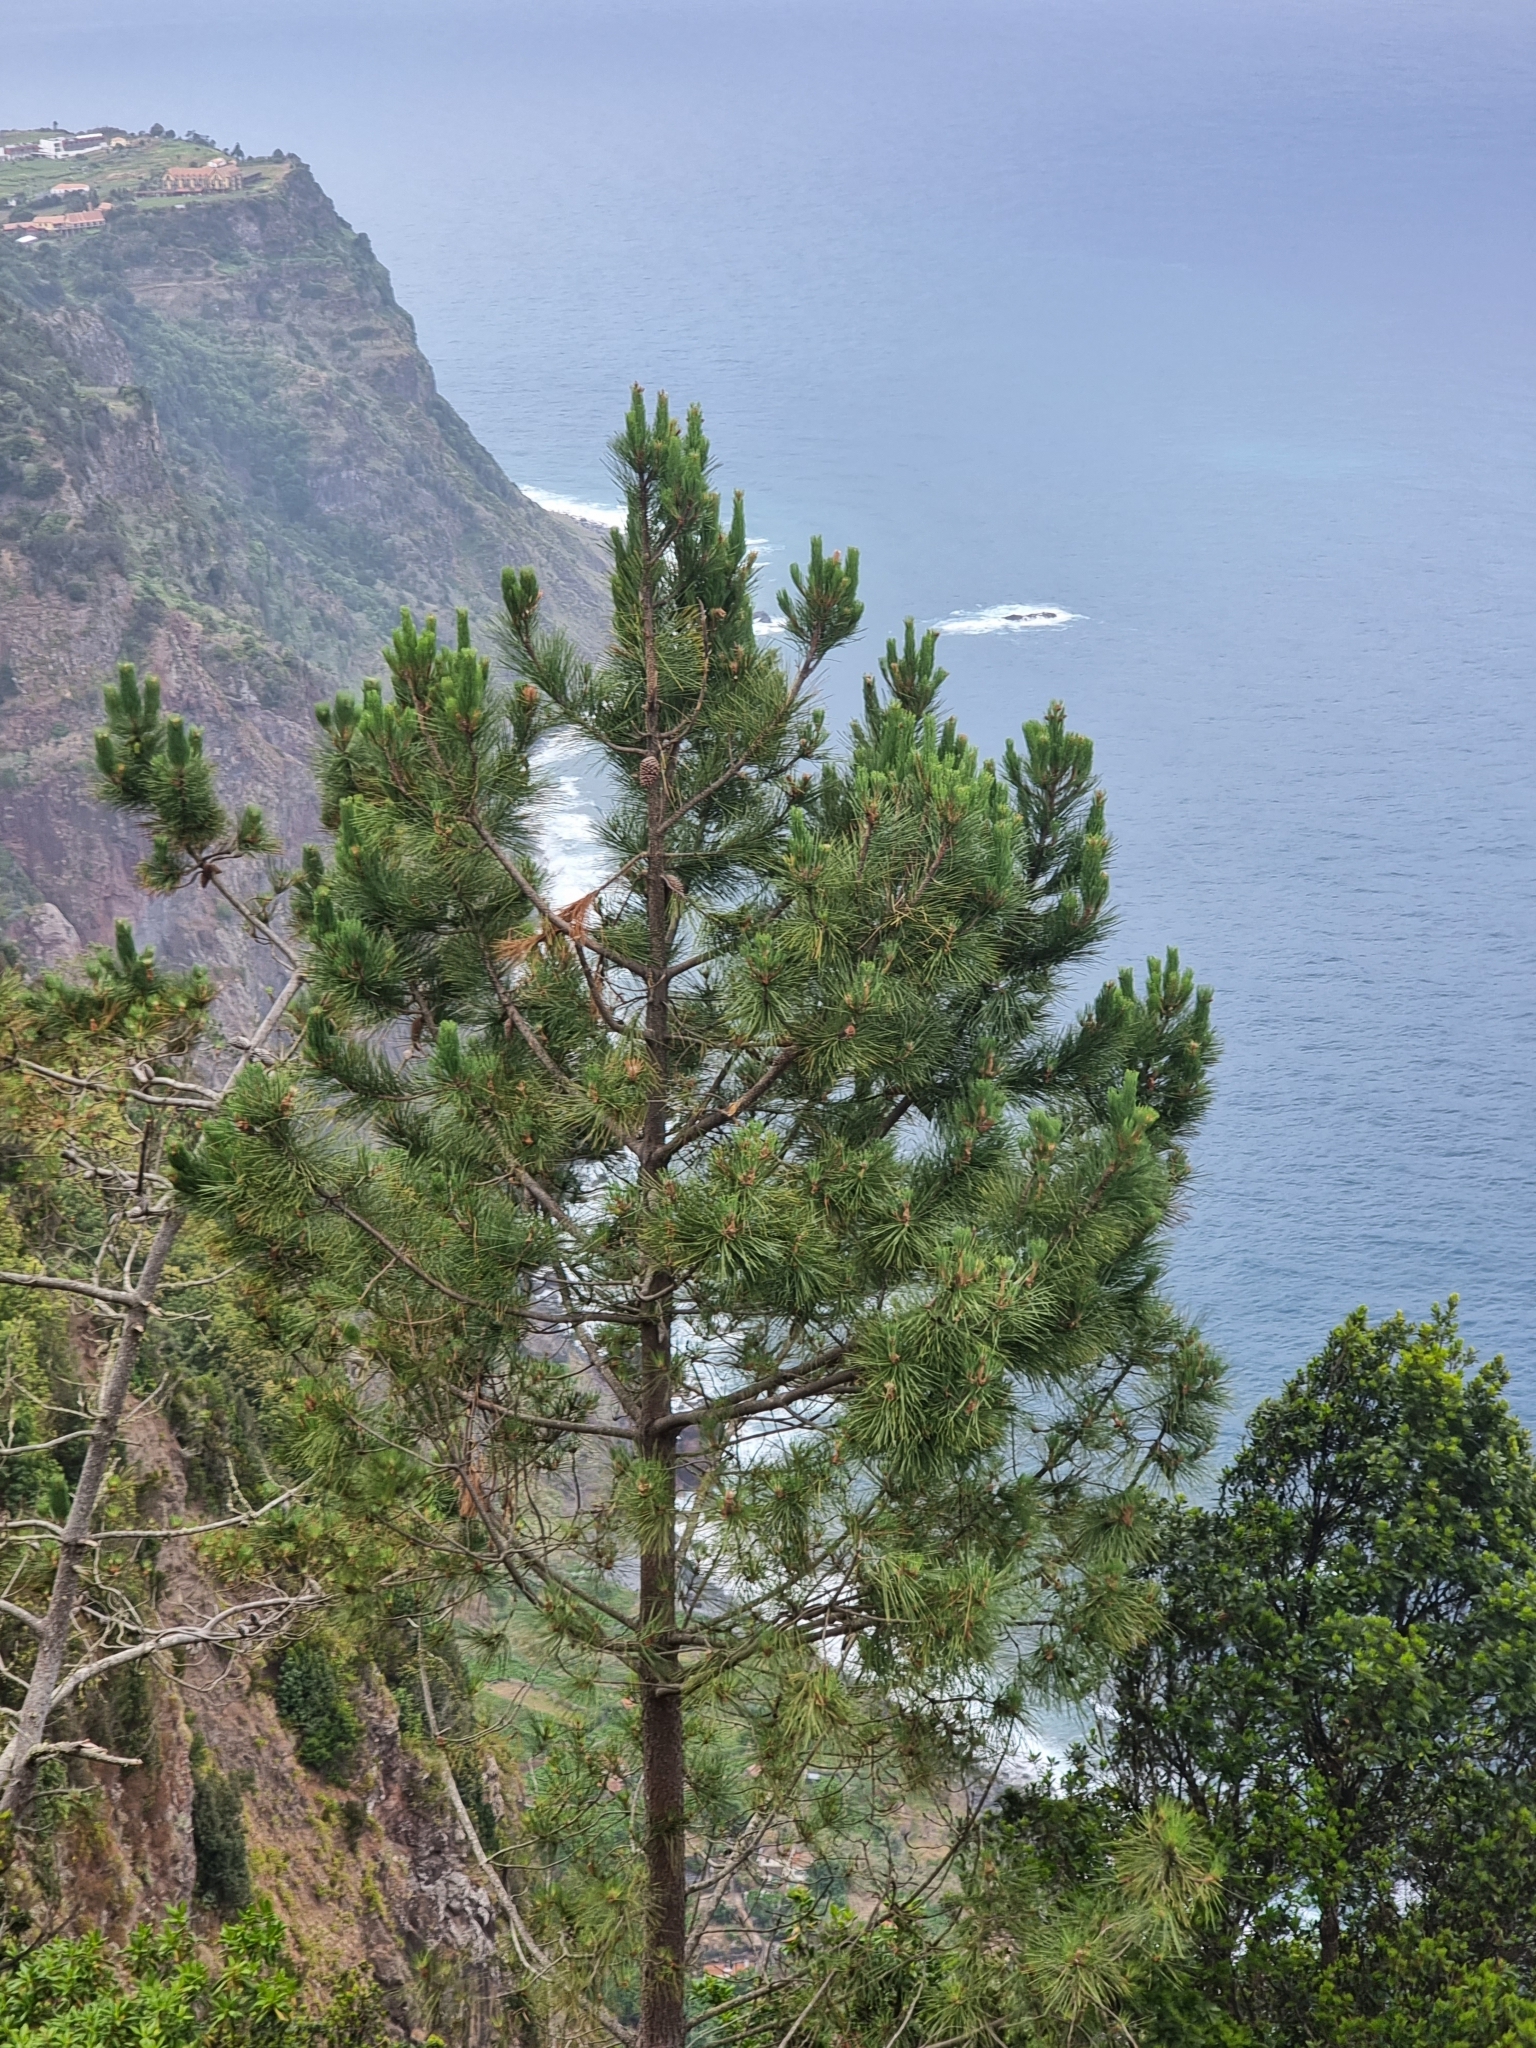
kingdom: Plantae
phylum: Tracheophyta
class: Pinopsida
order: Pinales
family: Pinaceae
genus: Pinus
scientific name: Pinus pinaster
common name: Maritime pine
